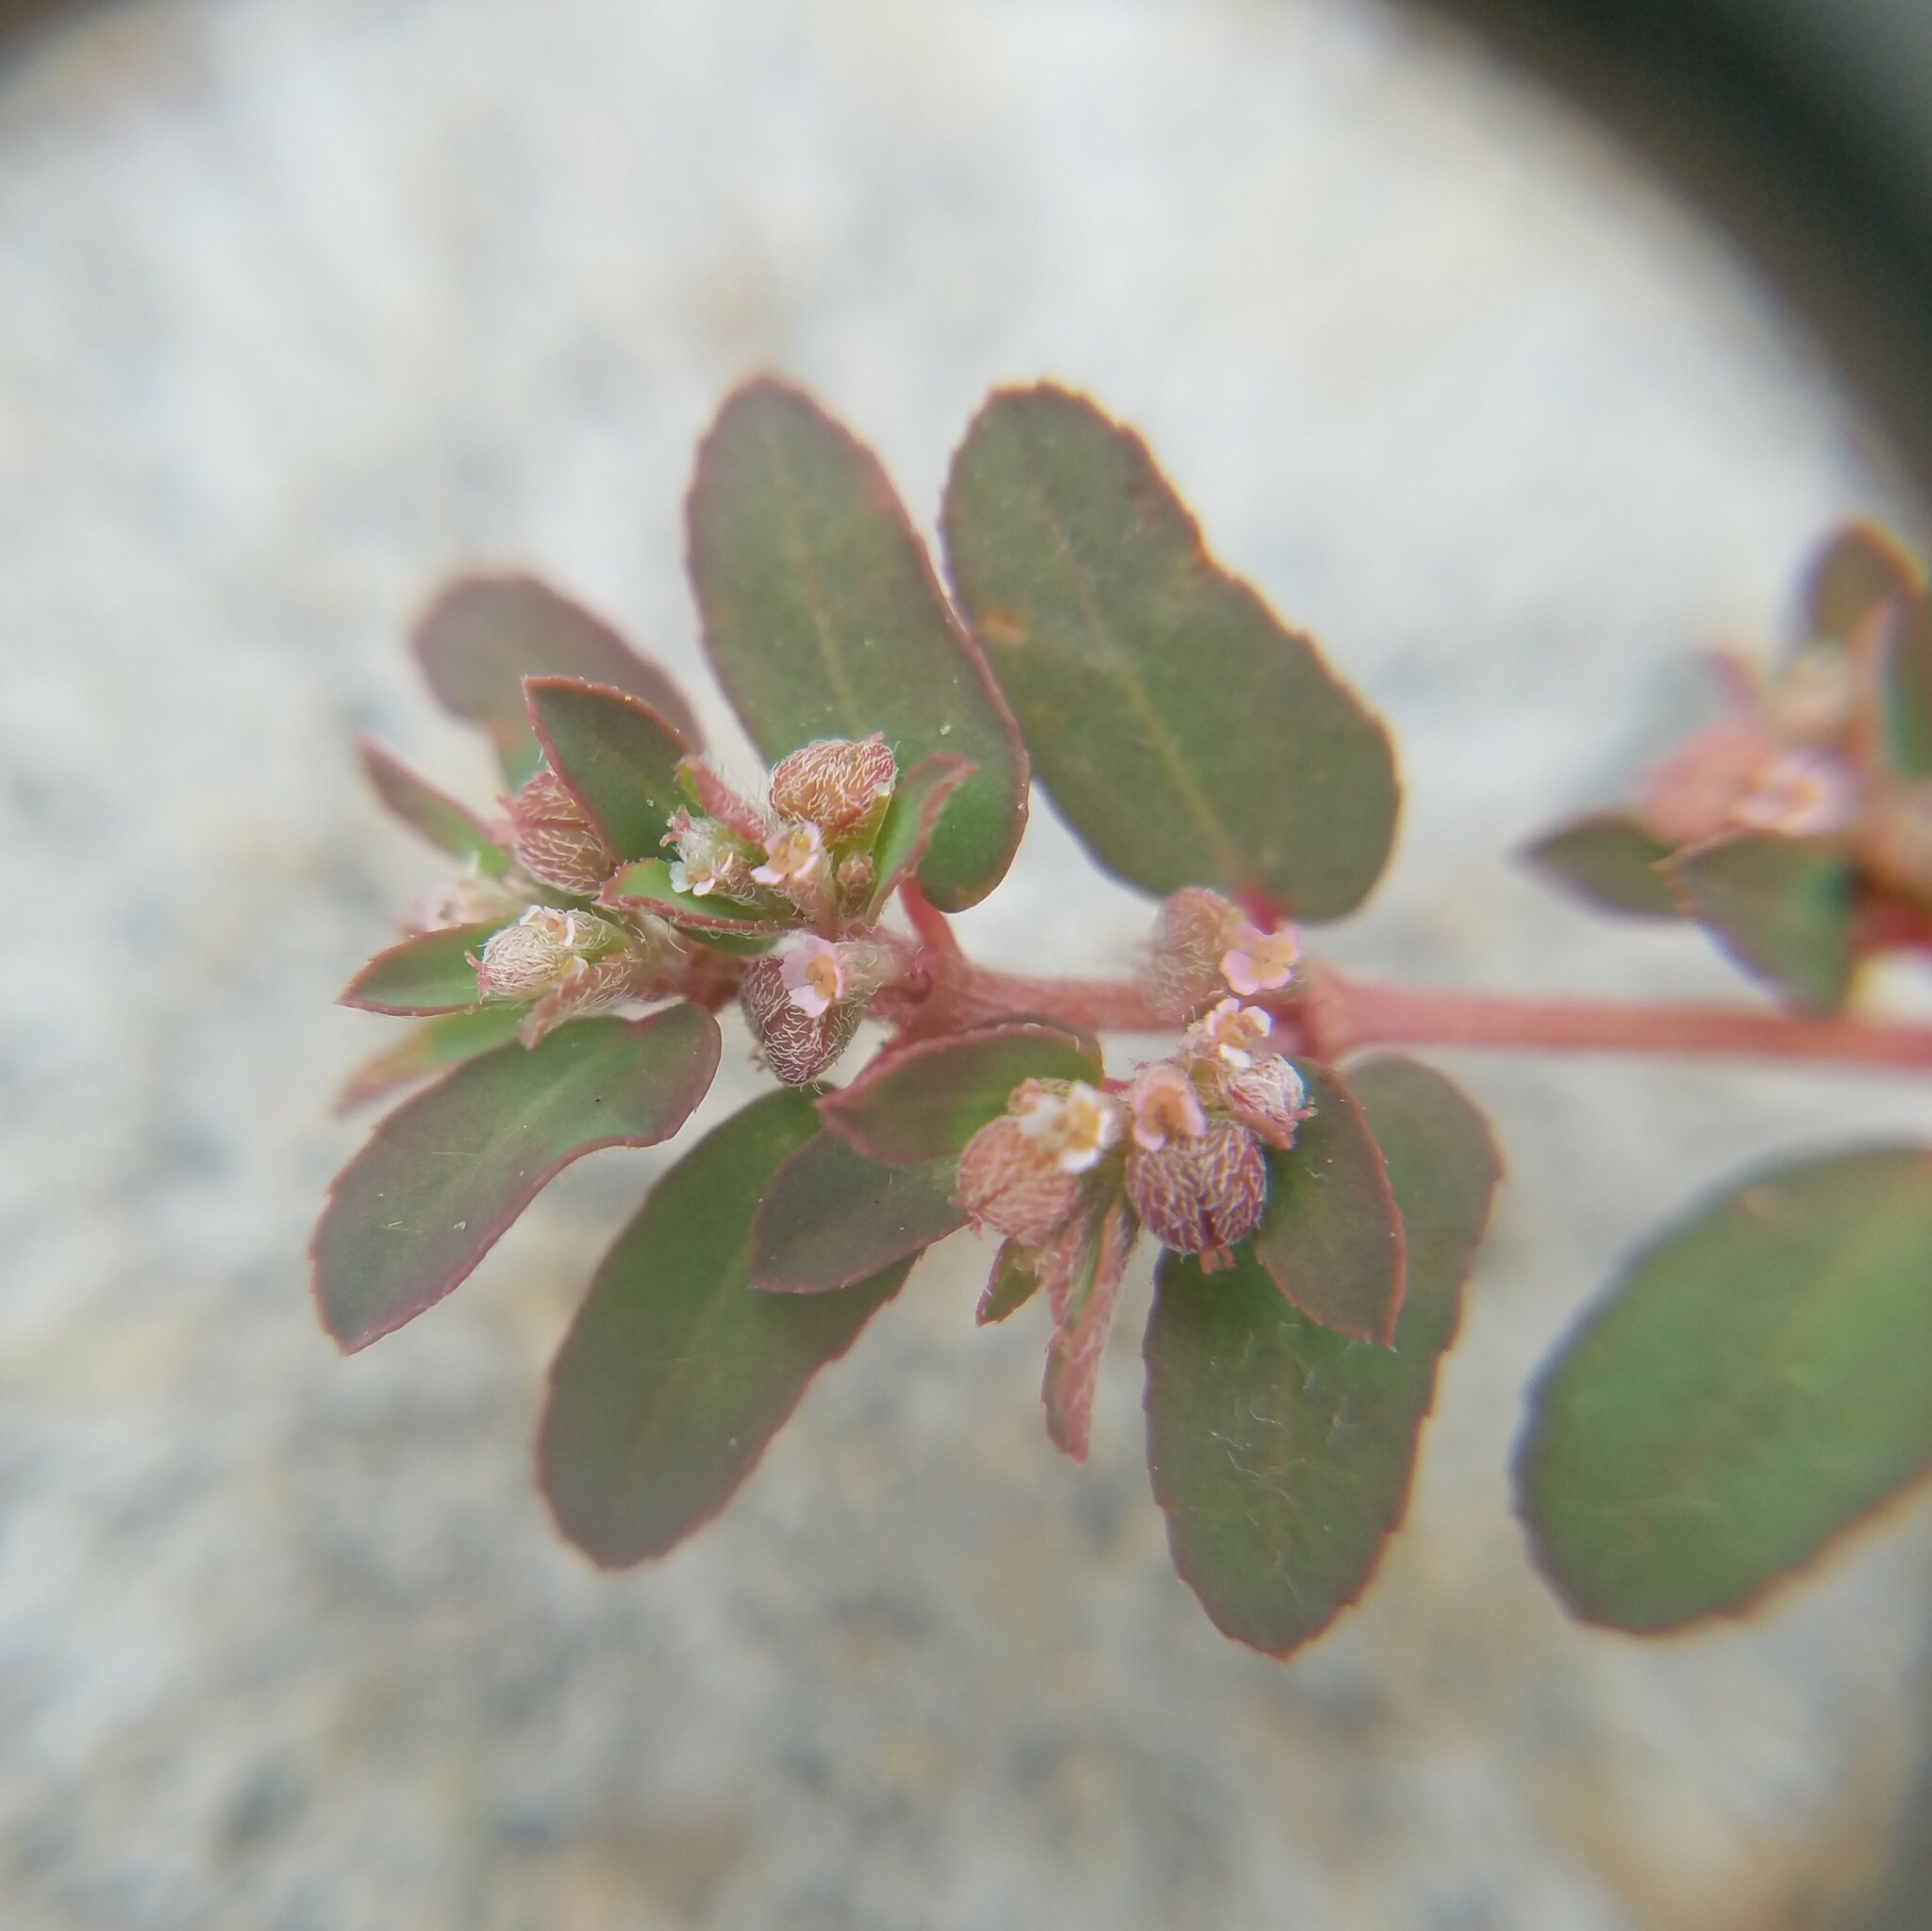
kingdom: Plantae
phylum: Tracheophyta
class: Magnoliopsida
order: Malpighiales
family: Euphorbiaceae
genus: Euphorbia
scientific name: Euphorbia maculata
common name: Spotted spurge
